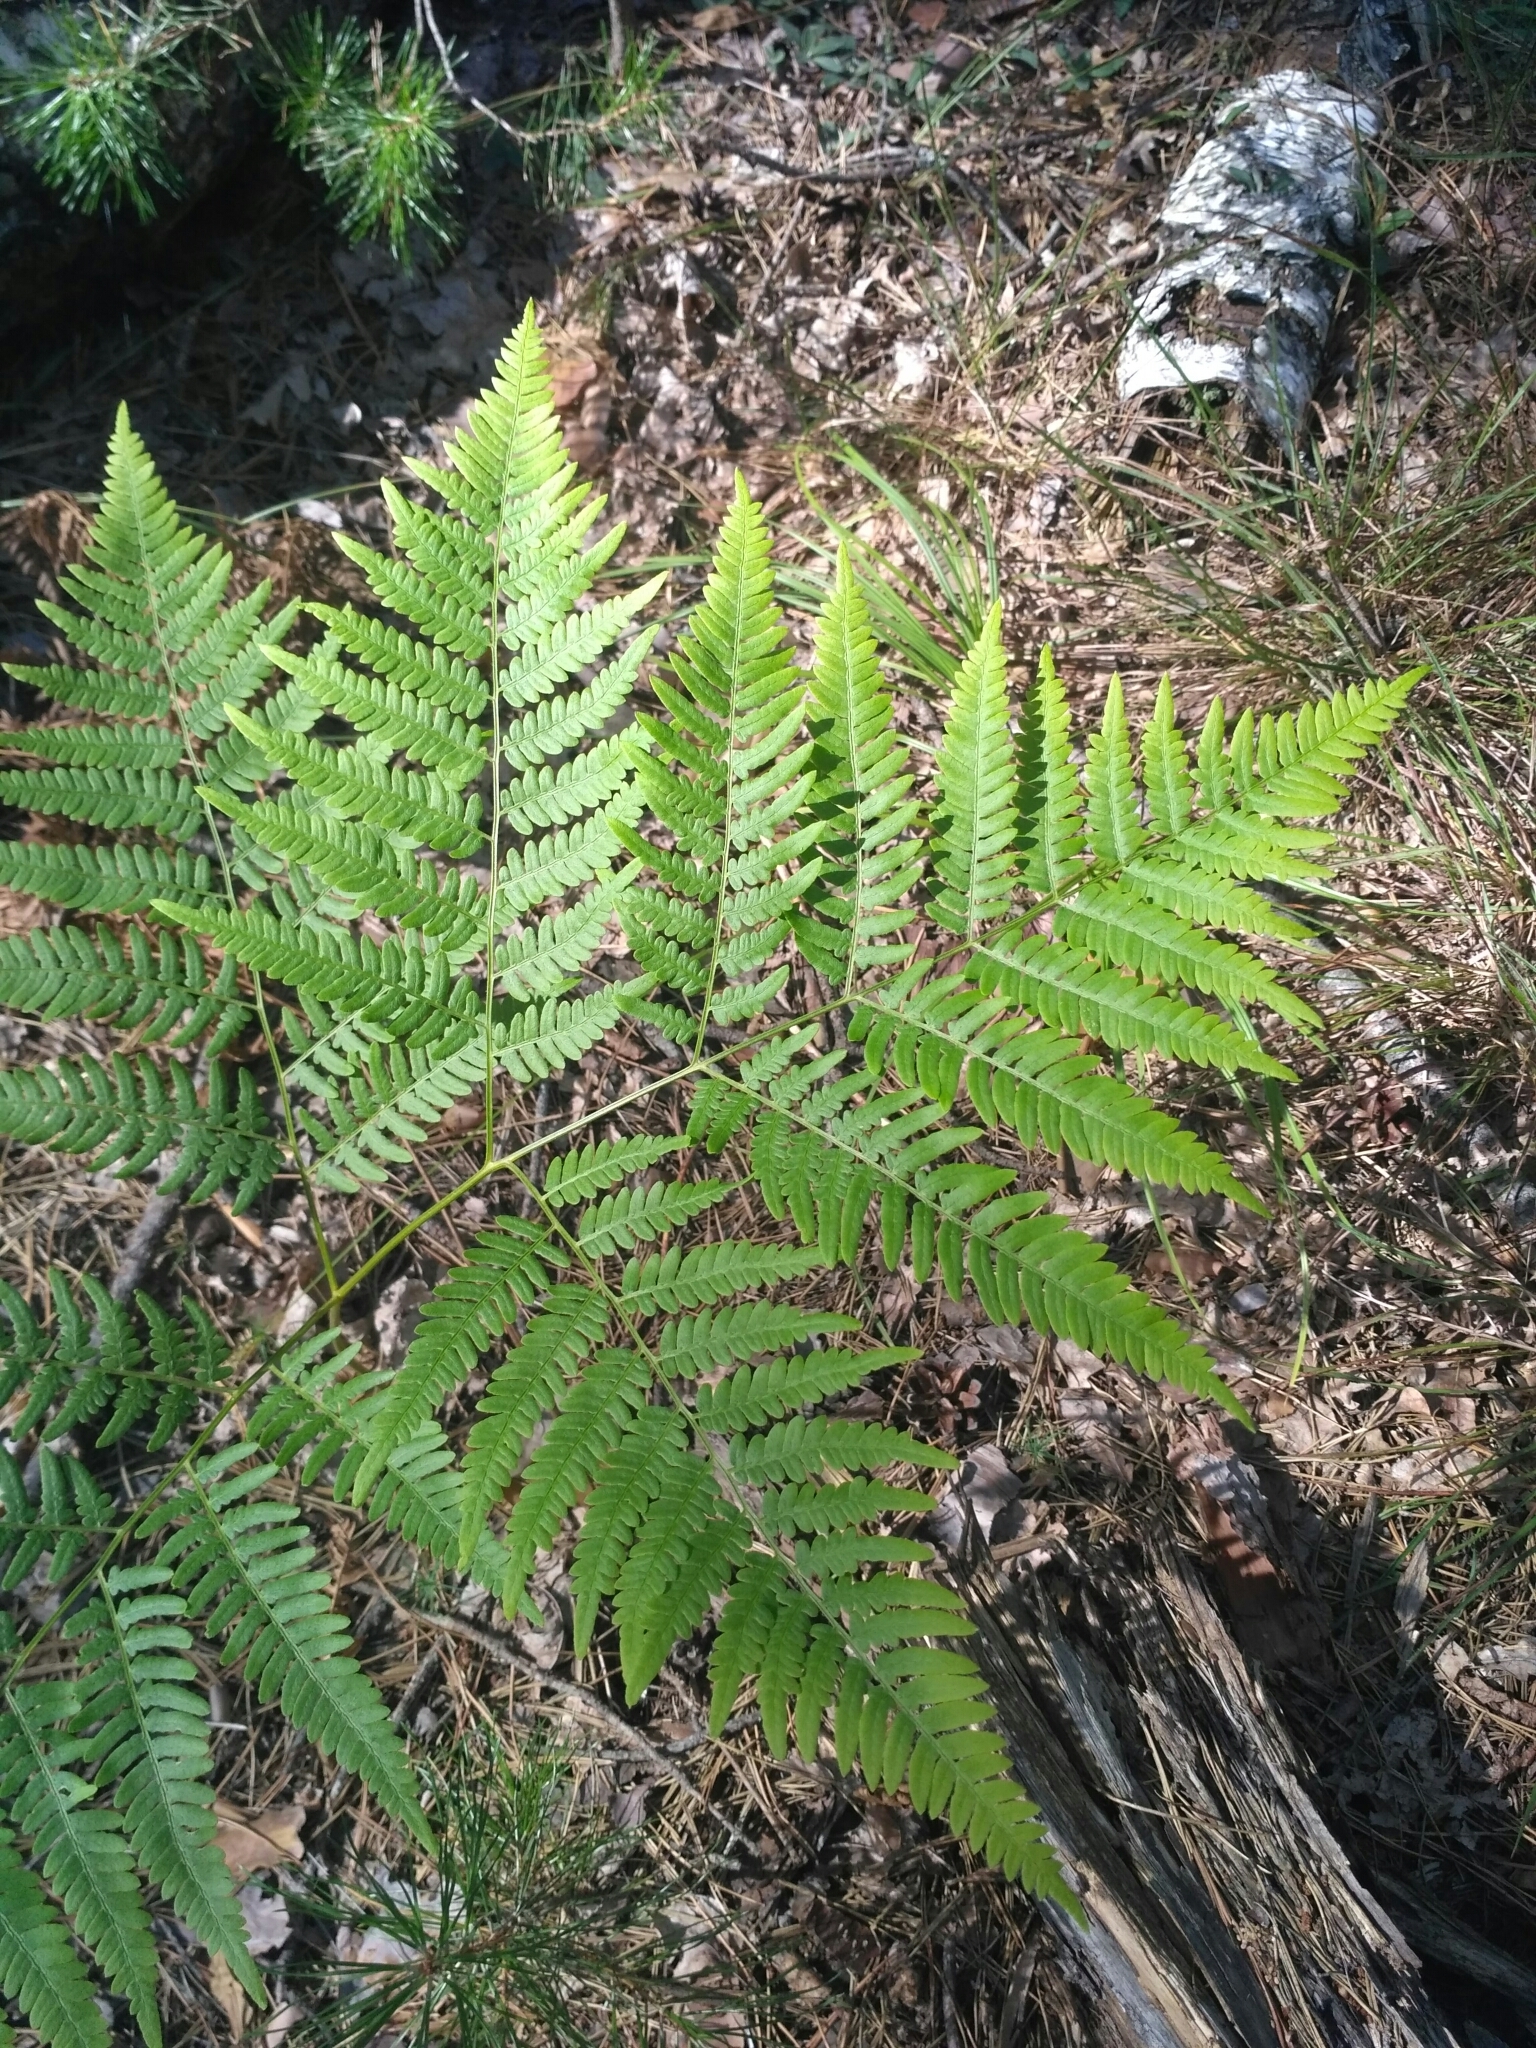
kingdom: Plantae
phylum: Tracheophyta
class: Polypodiopsida
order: Polypodiales
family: Dennstaedtiaceae
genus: Pteridium
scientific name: Pteridium aquilinum
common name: Bracken
